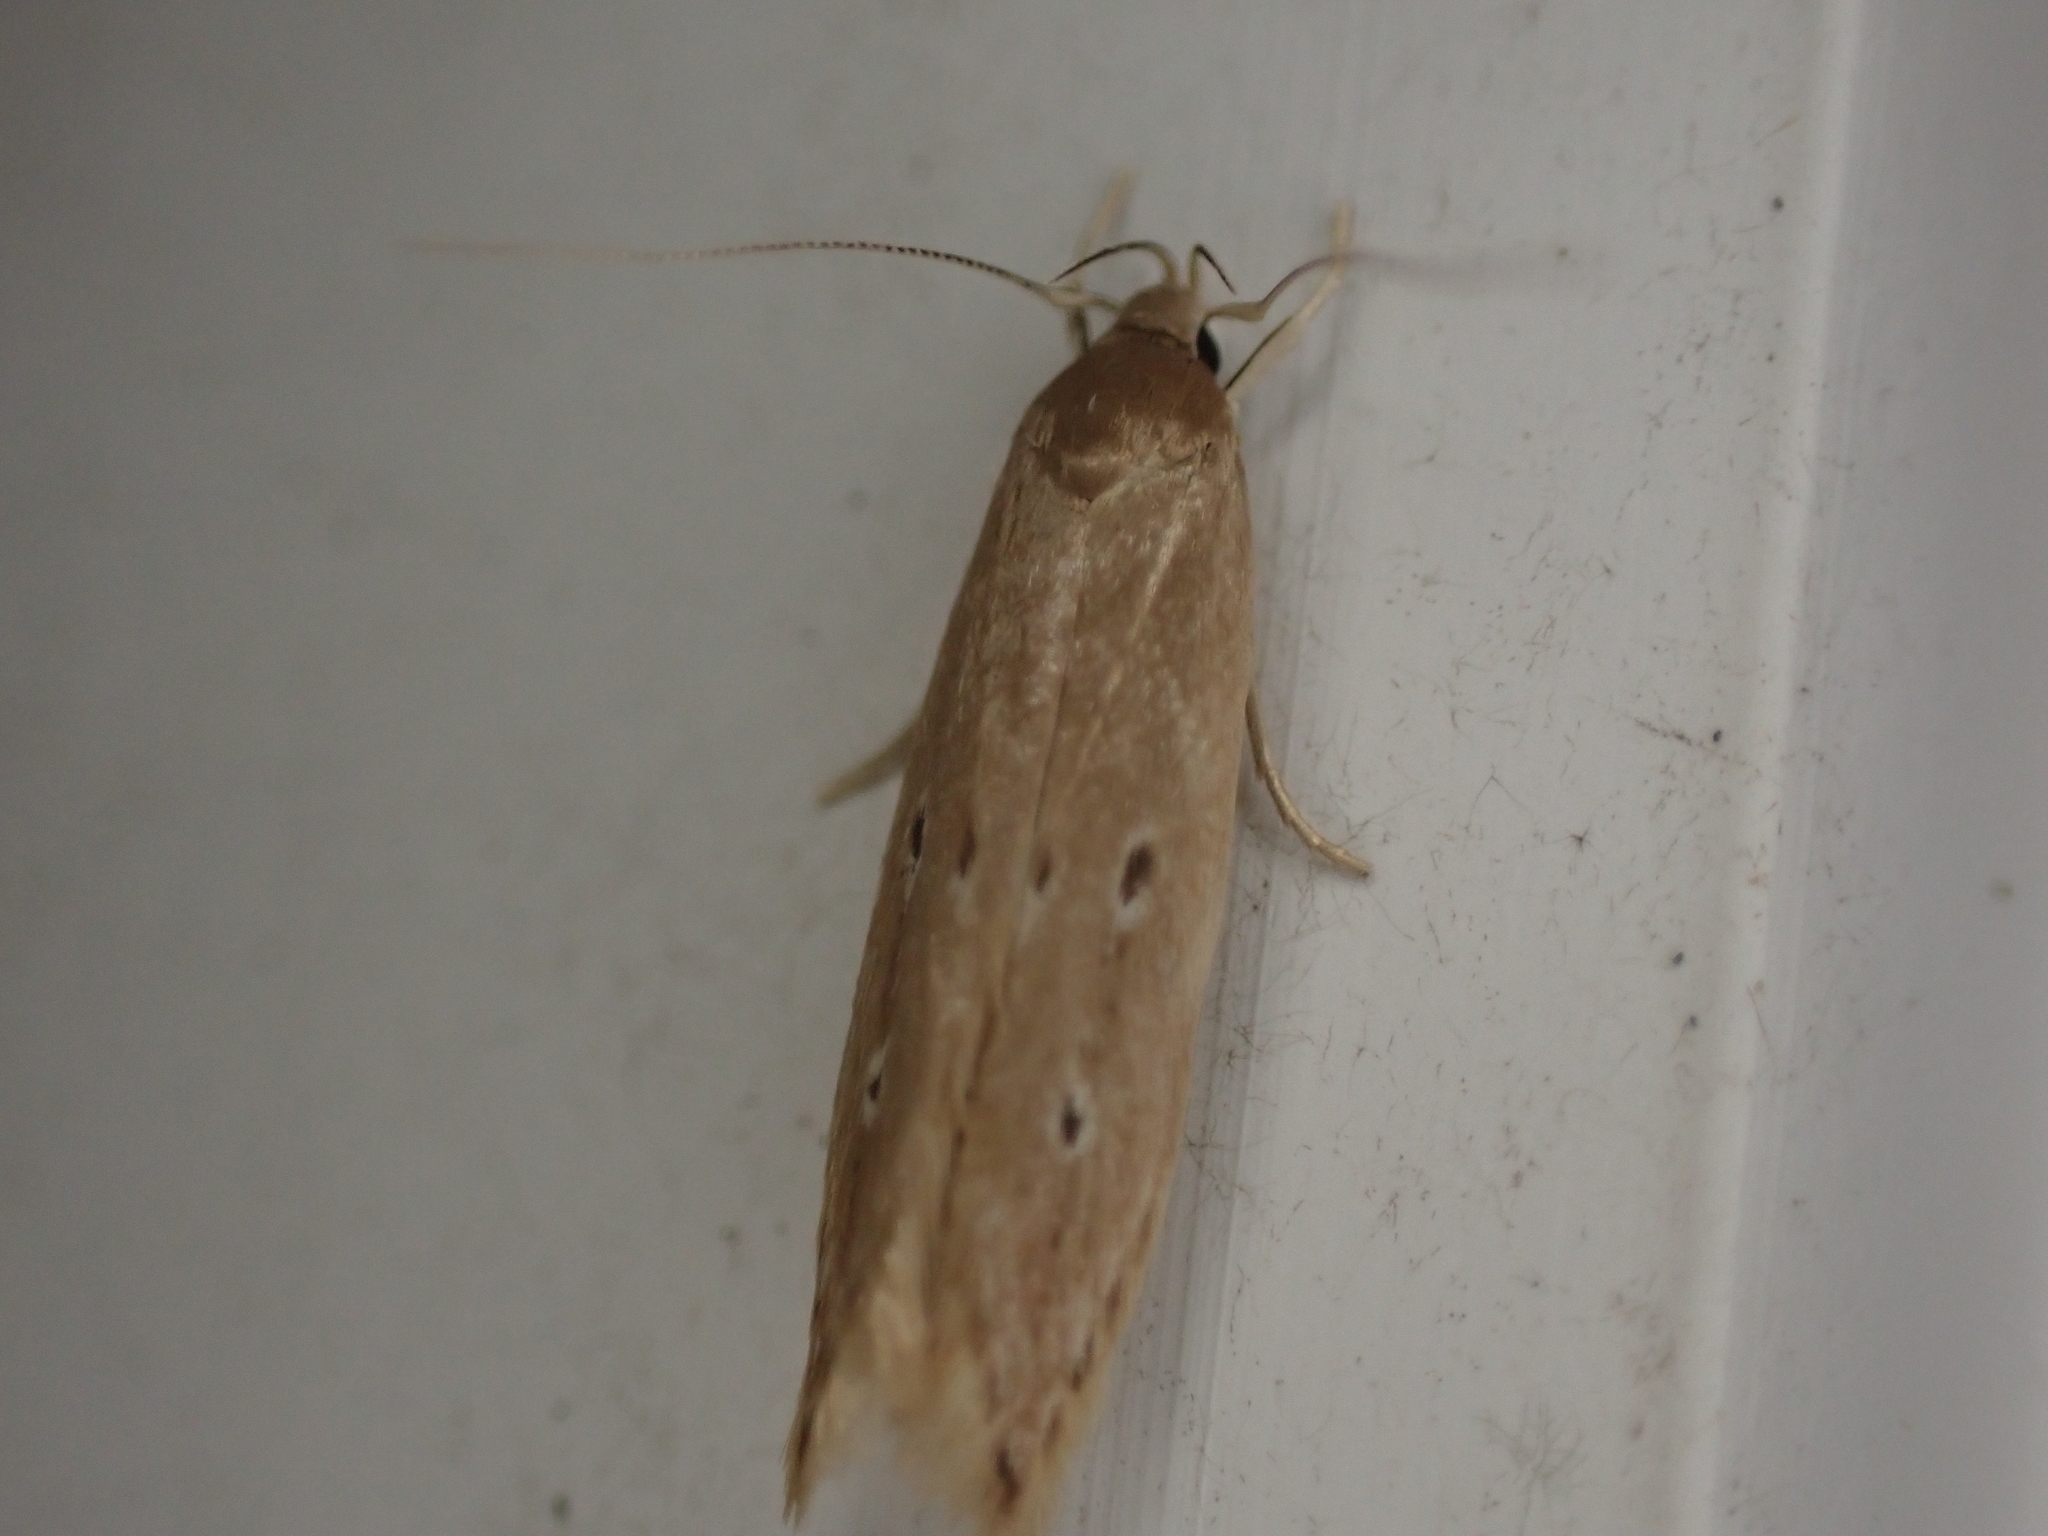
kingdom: Animalia
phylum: Arthropoda
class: Insecta
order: Lepidoptera
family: Cosmopterigidae
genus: Limnaecia
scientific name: Limnaecia phragmitella
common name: Bulrush cosmet
